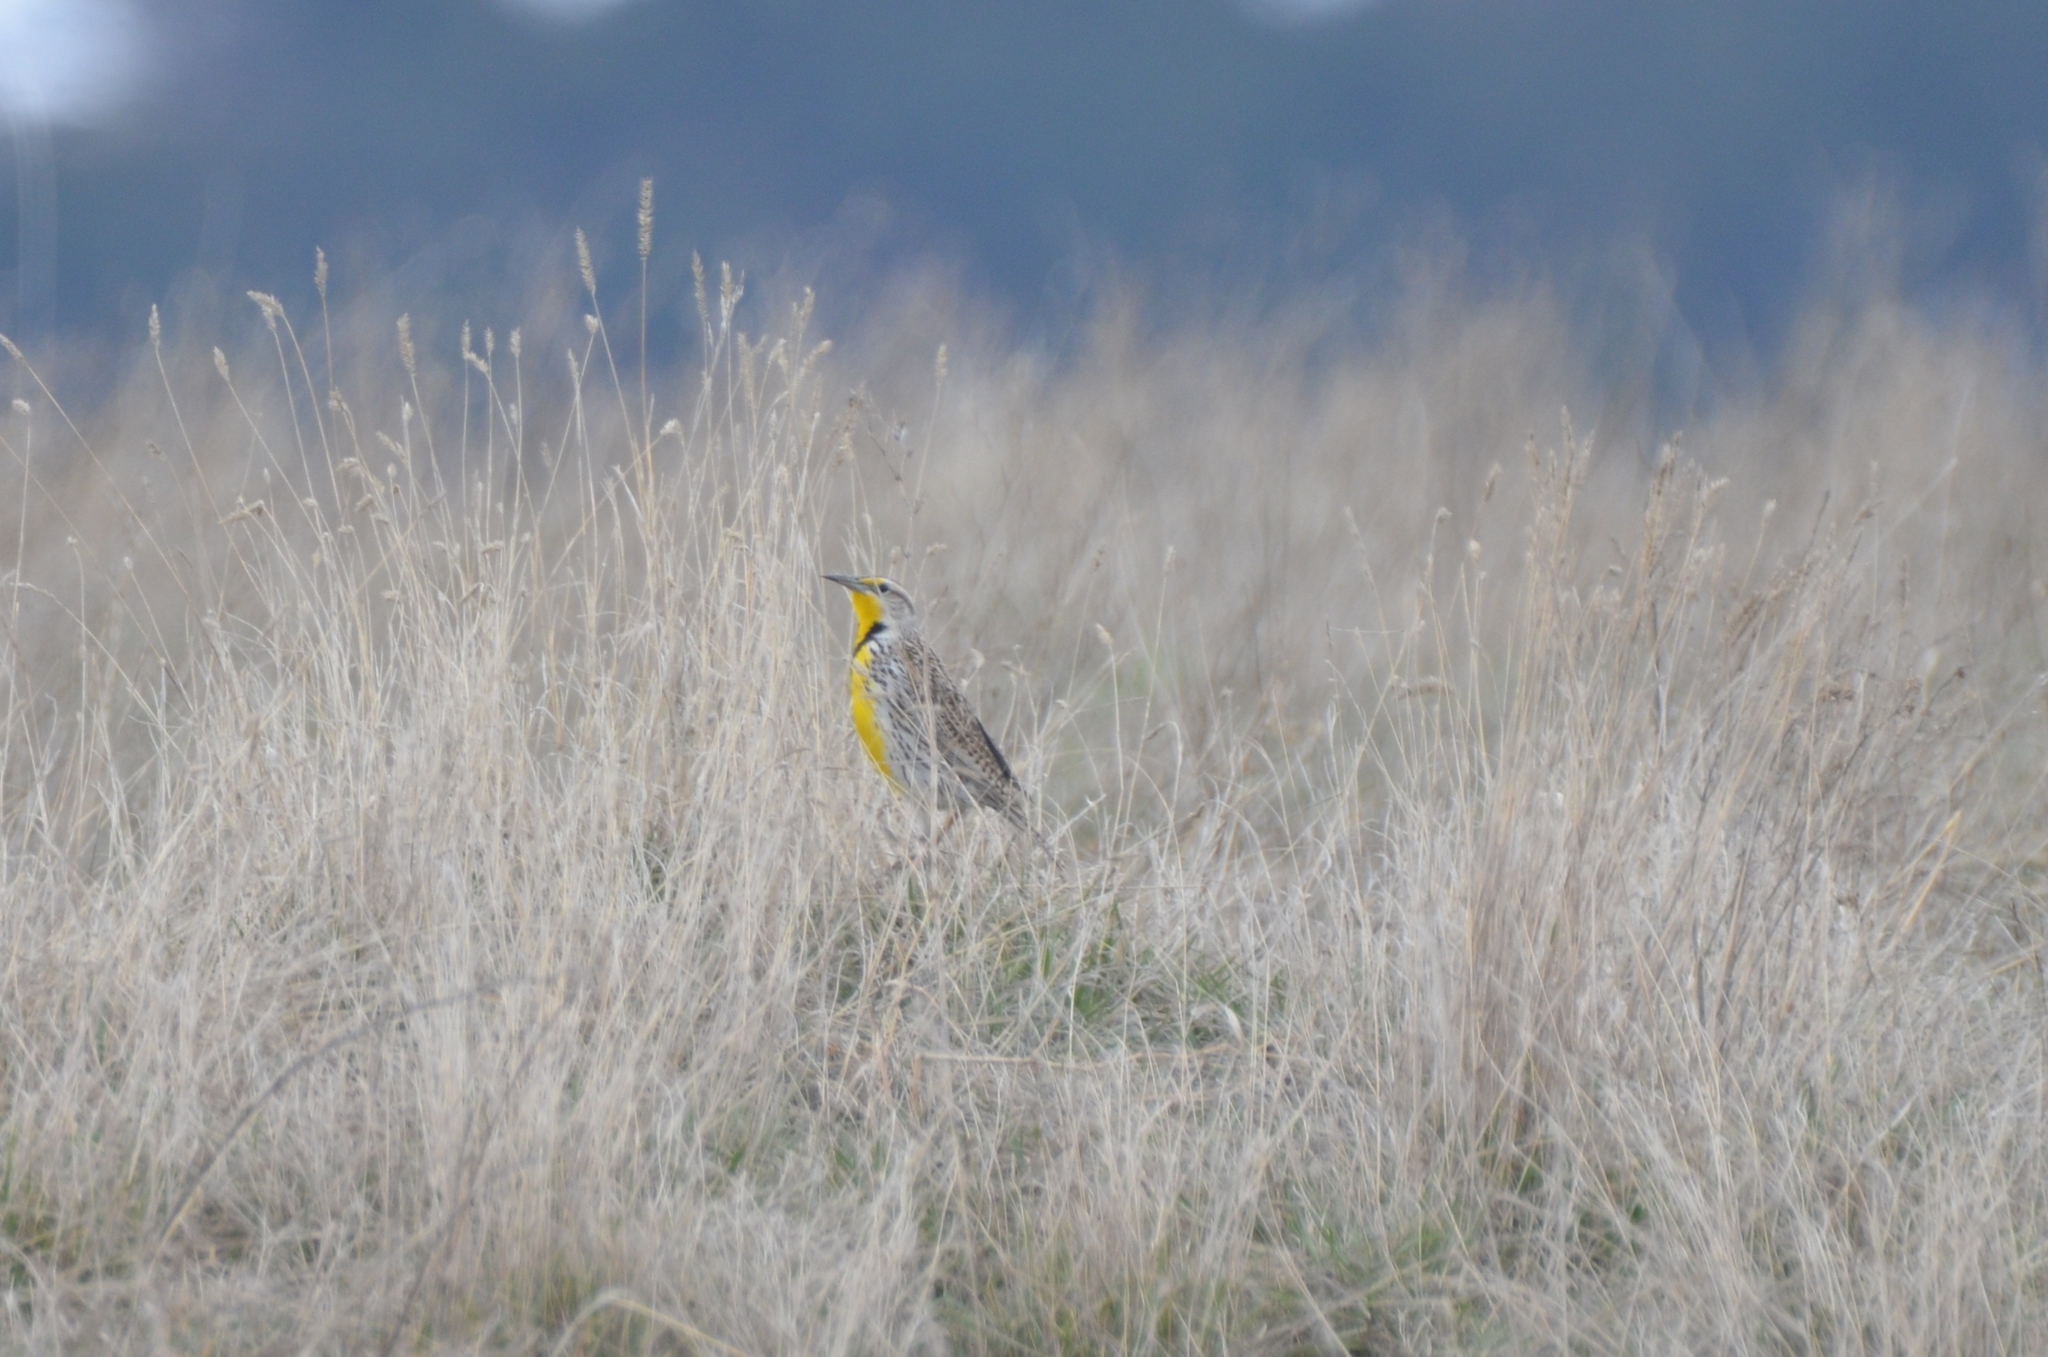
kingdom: Animalia
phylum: Chordata
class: Aves
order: Passeriformes
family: Icteridae
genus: Sturnella
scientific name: Sturnella neglecta
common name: Western meadowlark
